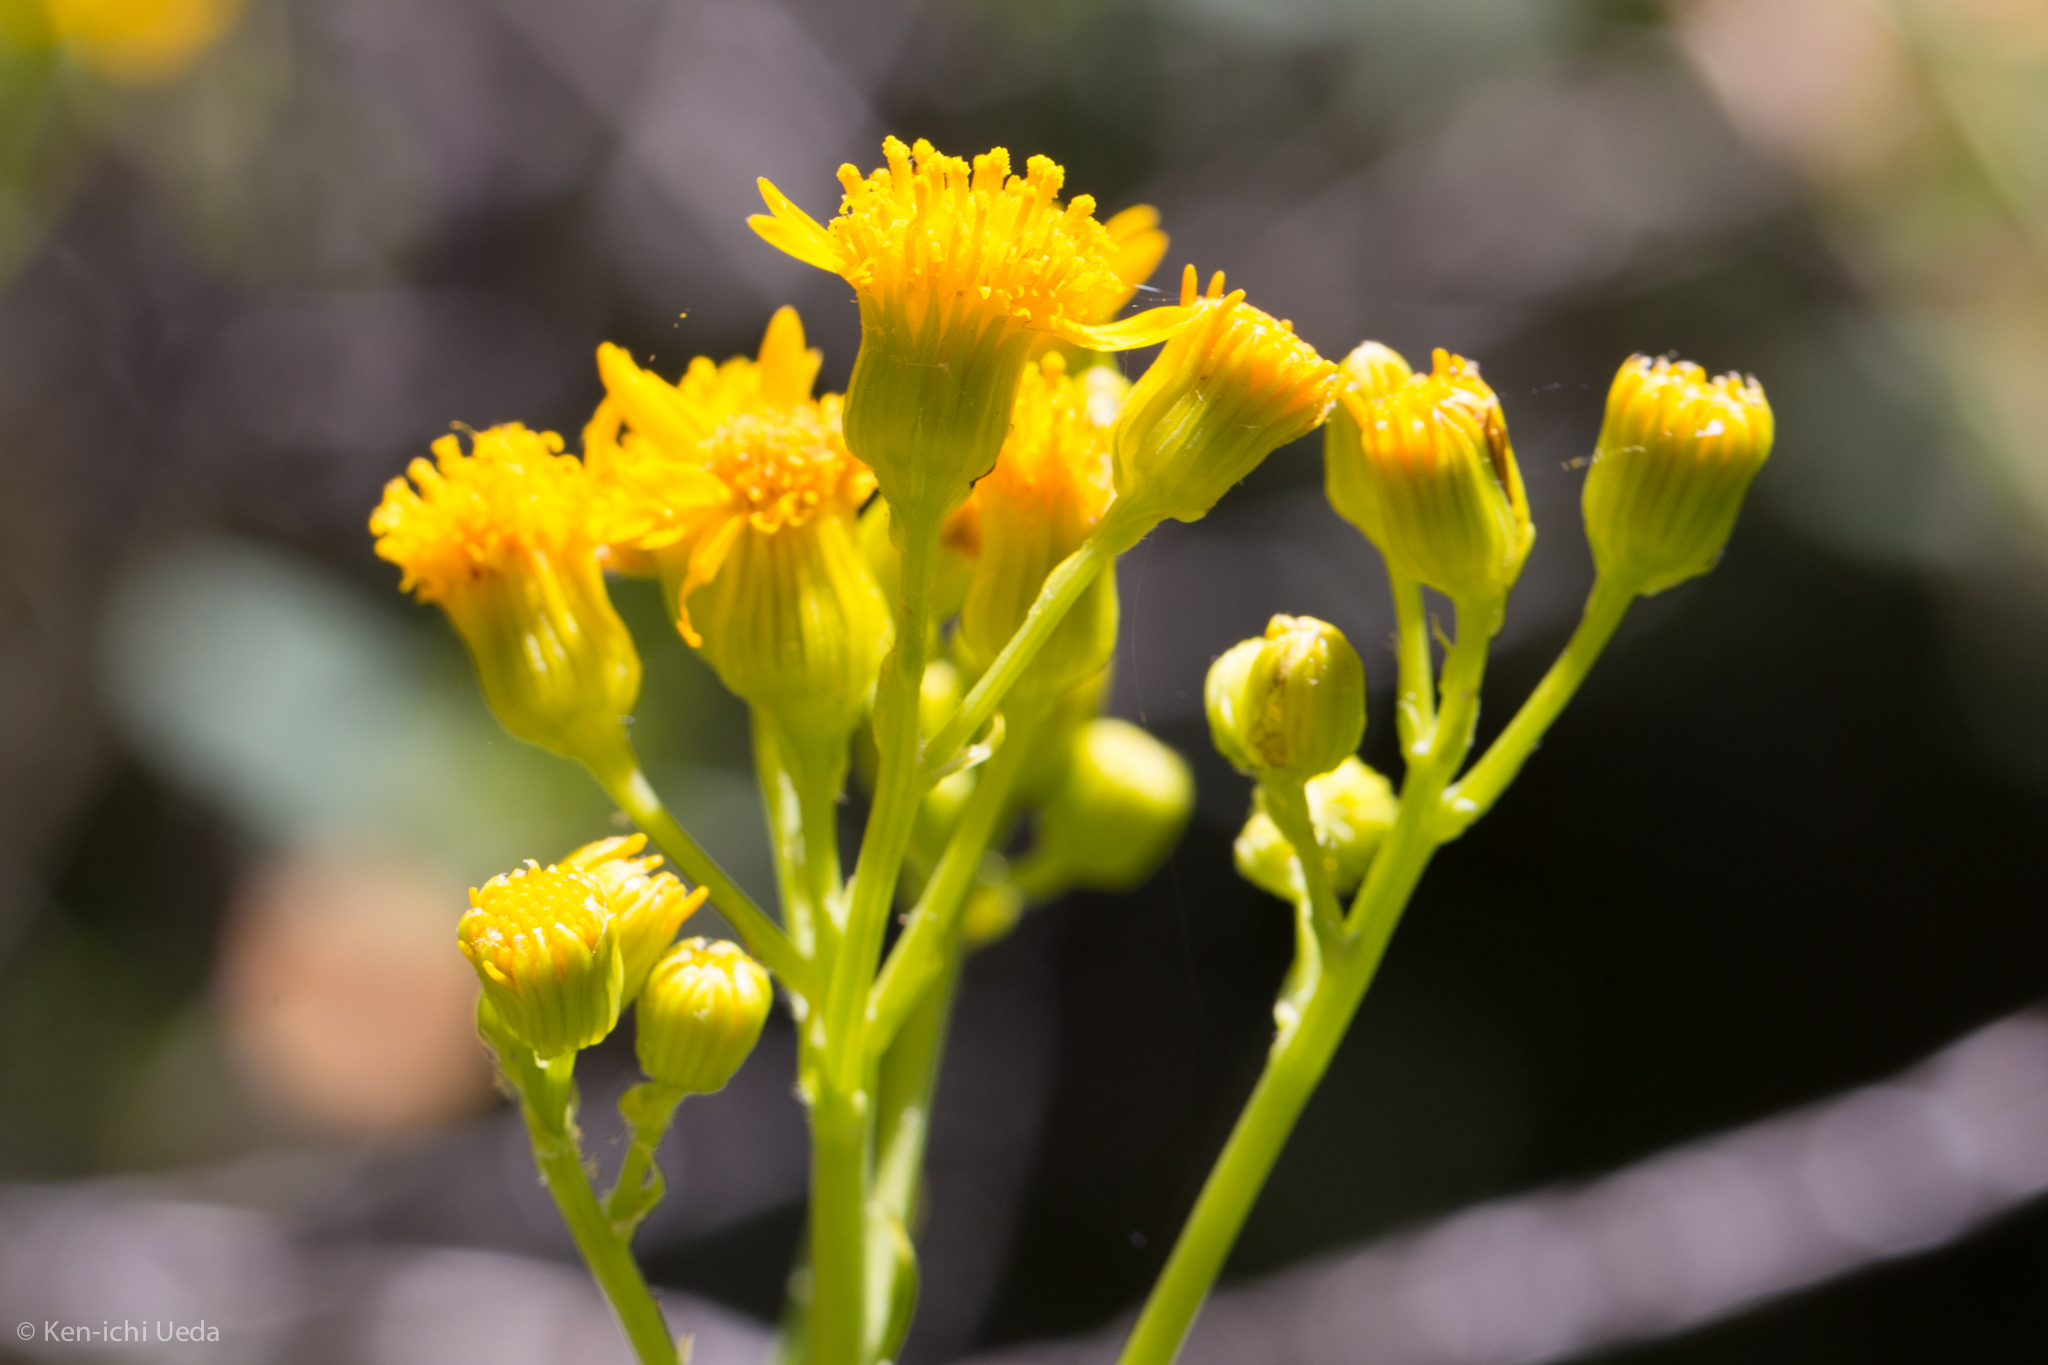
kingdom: Plantae
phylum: Tracheophyta
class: Magnoliopsida
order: Asterales
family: Asteraceae
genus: Packera
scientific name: Packera clevelandii
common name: Serpentine butterweed
